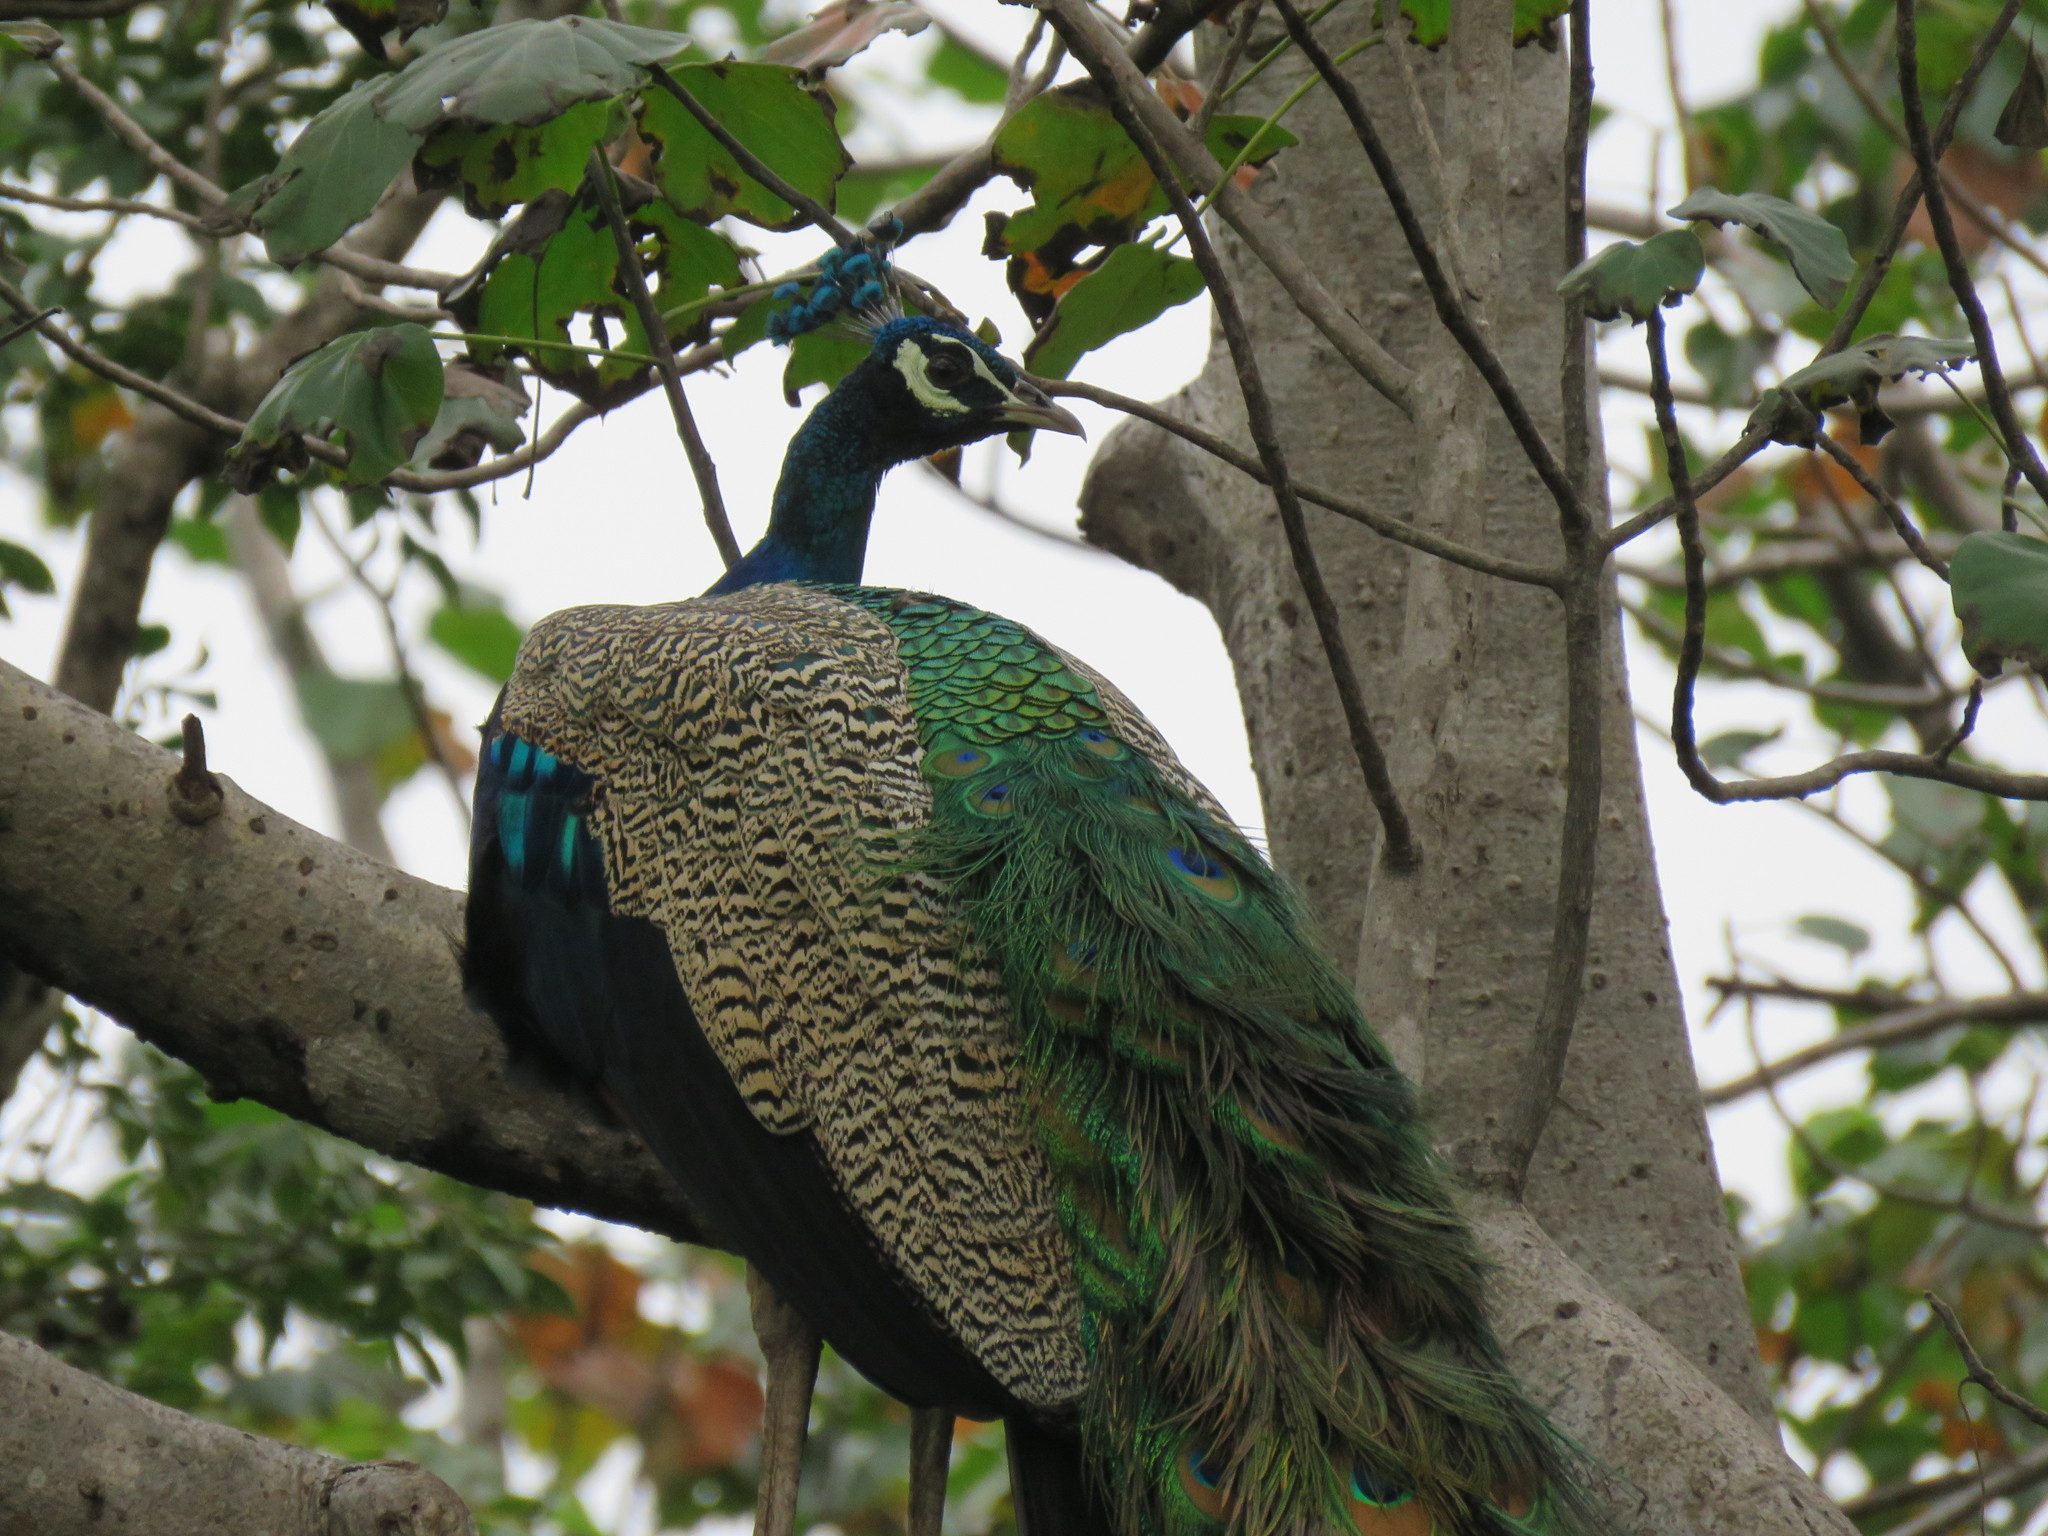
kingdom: Animalia
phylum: Chordata
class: Aves
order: Galliformes
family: Phasianidae
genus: Pavo
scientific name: Pavo cristatus
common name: Indian peafowl
